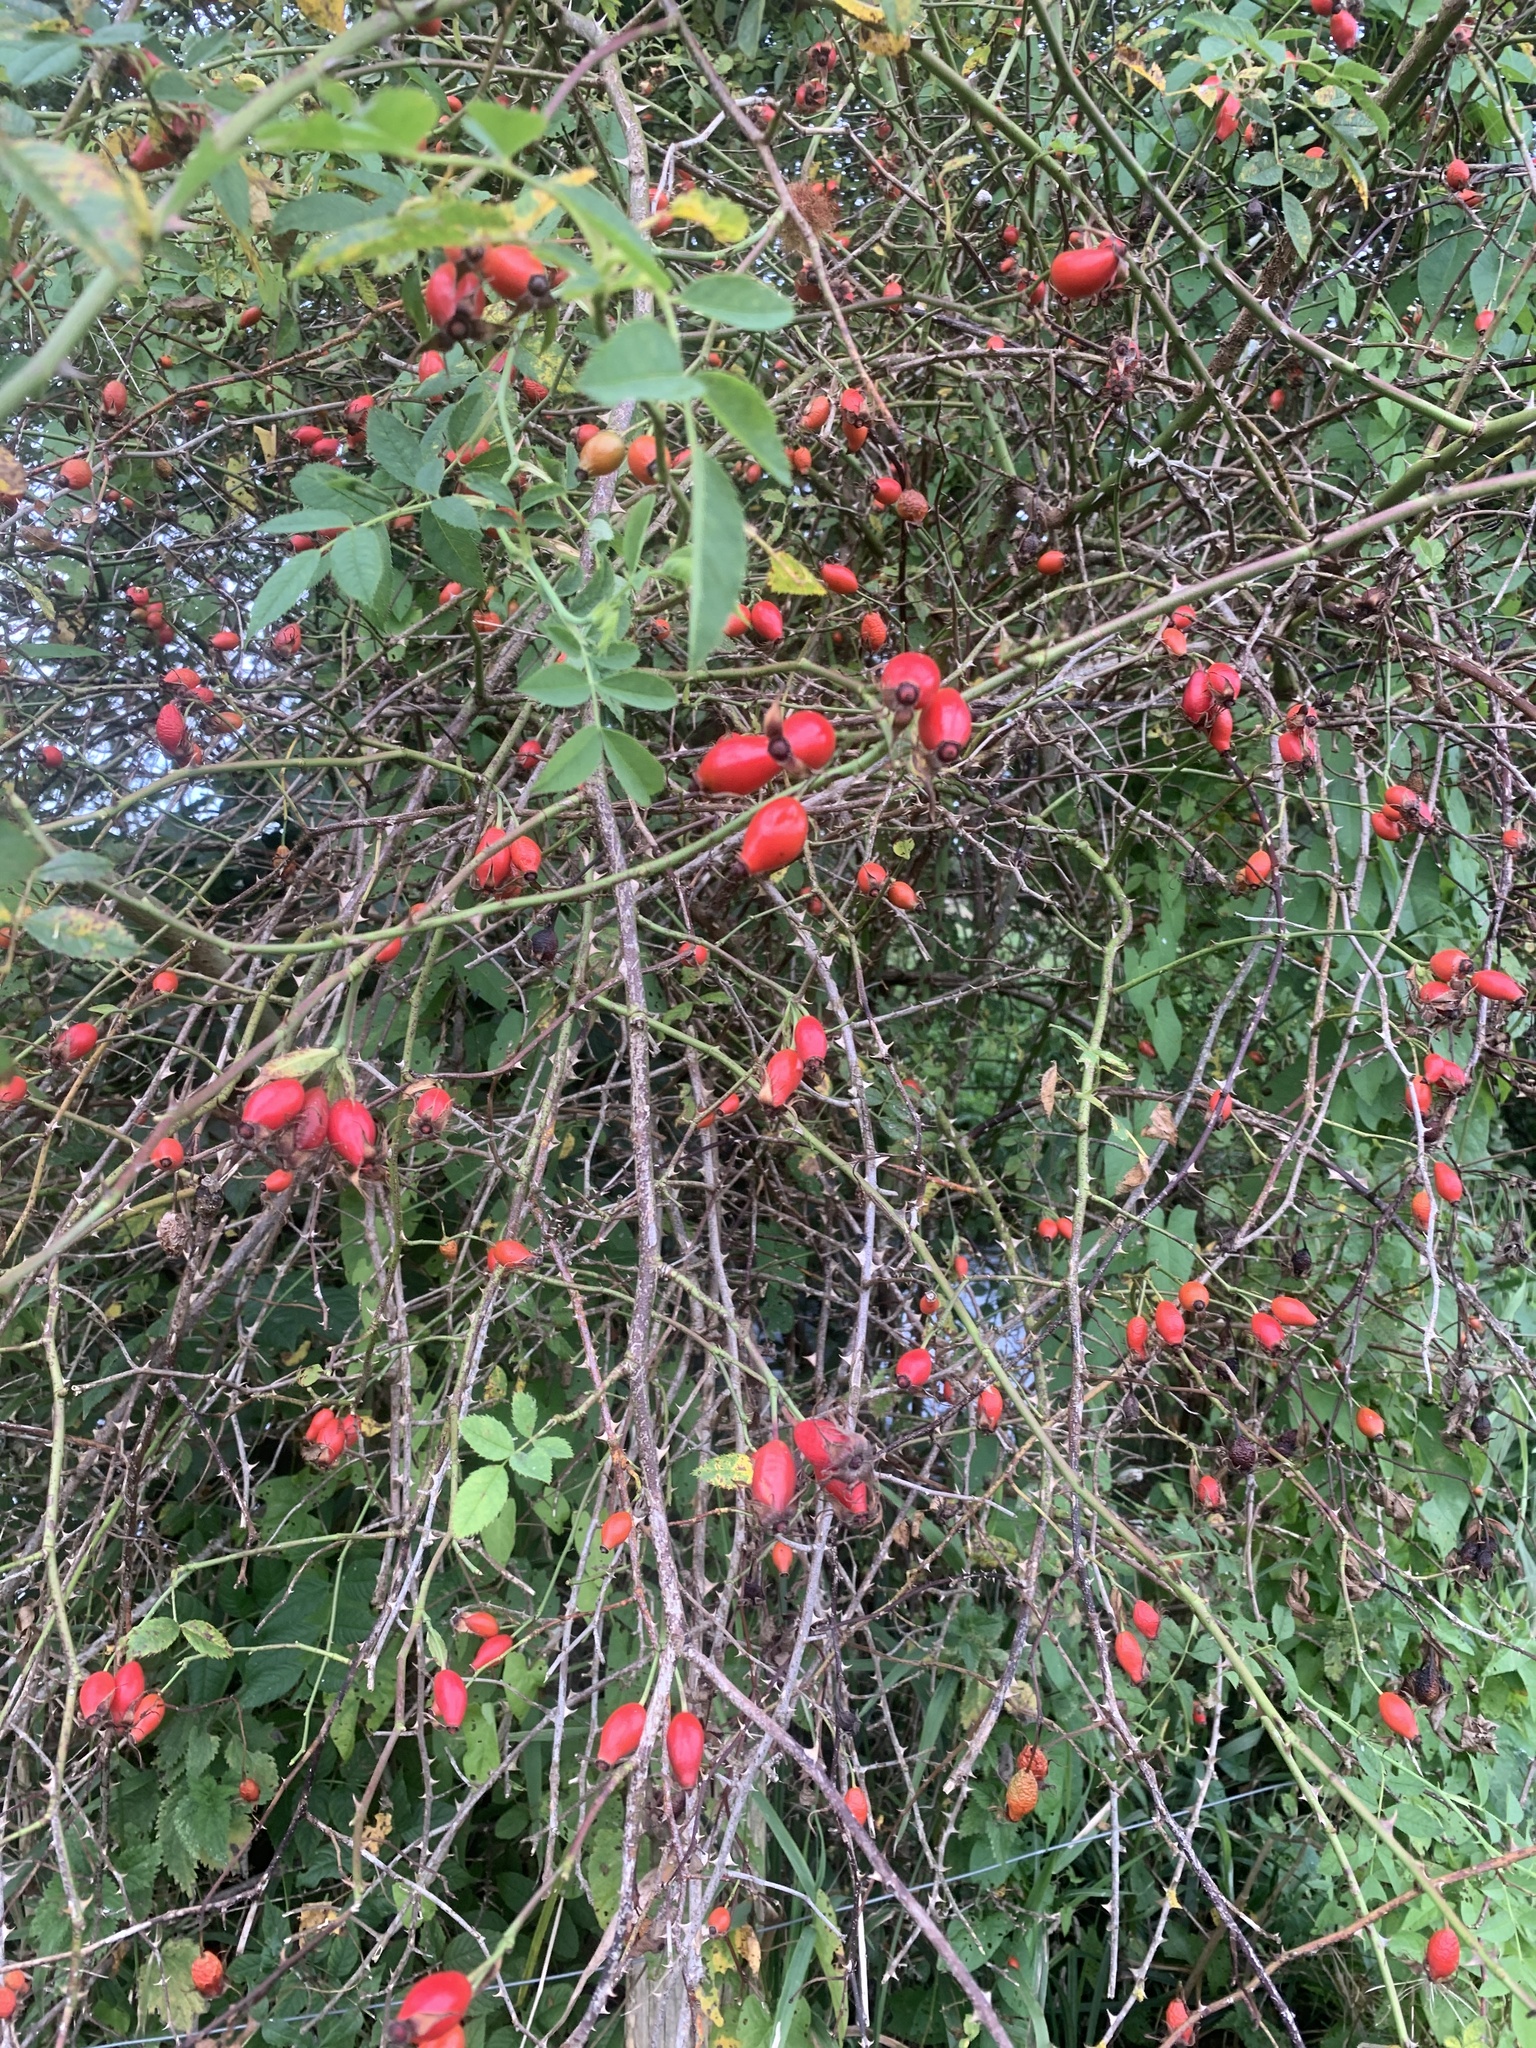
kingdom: Plantae
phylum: Tracheophyta
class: Magnoliopsida
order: Rosales
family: Rosaceae
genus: Rosa
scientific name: Rosa canina
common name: Dog rose
